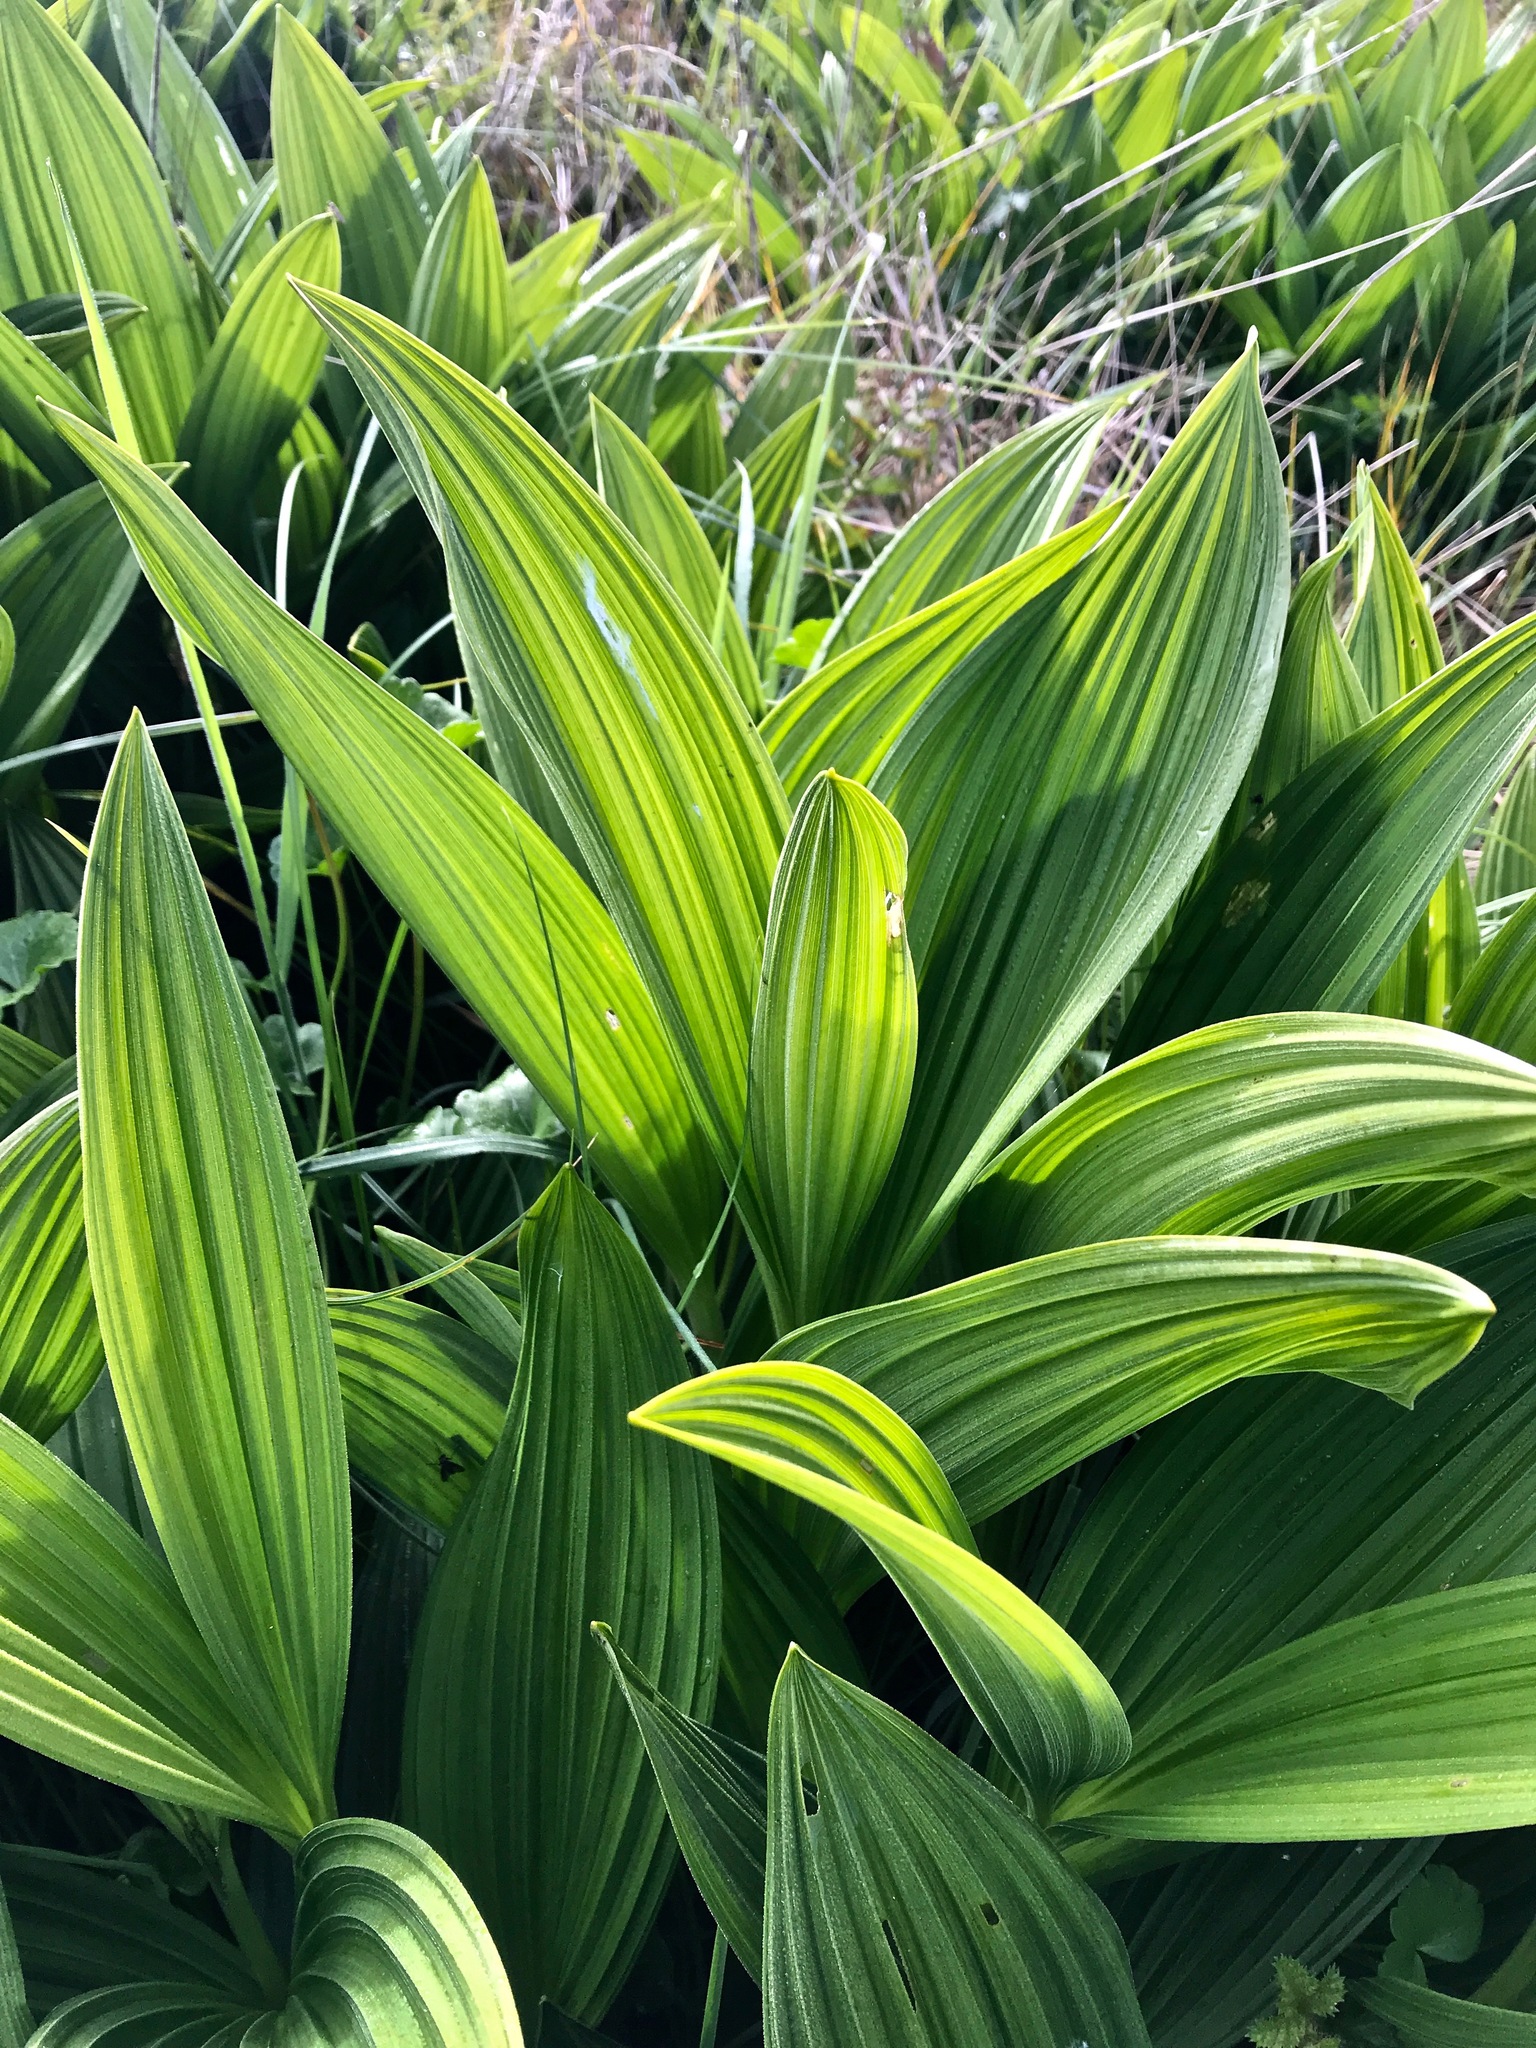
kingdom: Plantae
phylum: Tracheophyta
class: Liliopsida
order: Liliales
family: Melanthiaceae
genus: Veratrum
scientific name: Veratrum fimbriatum
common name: Fringe false hellobore
